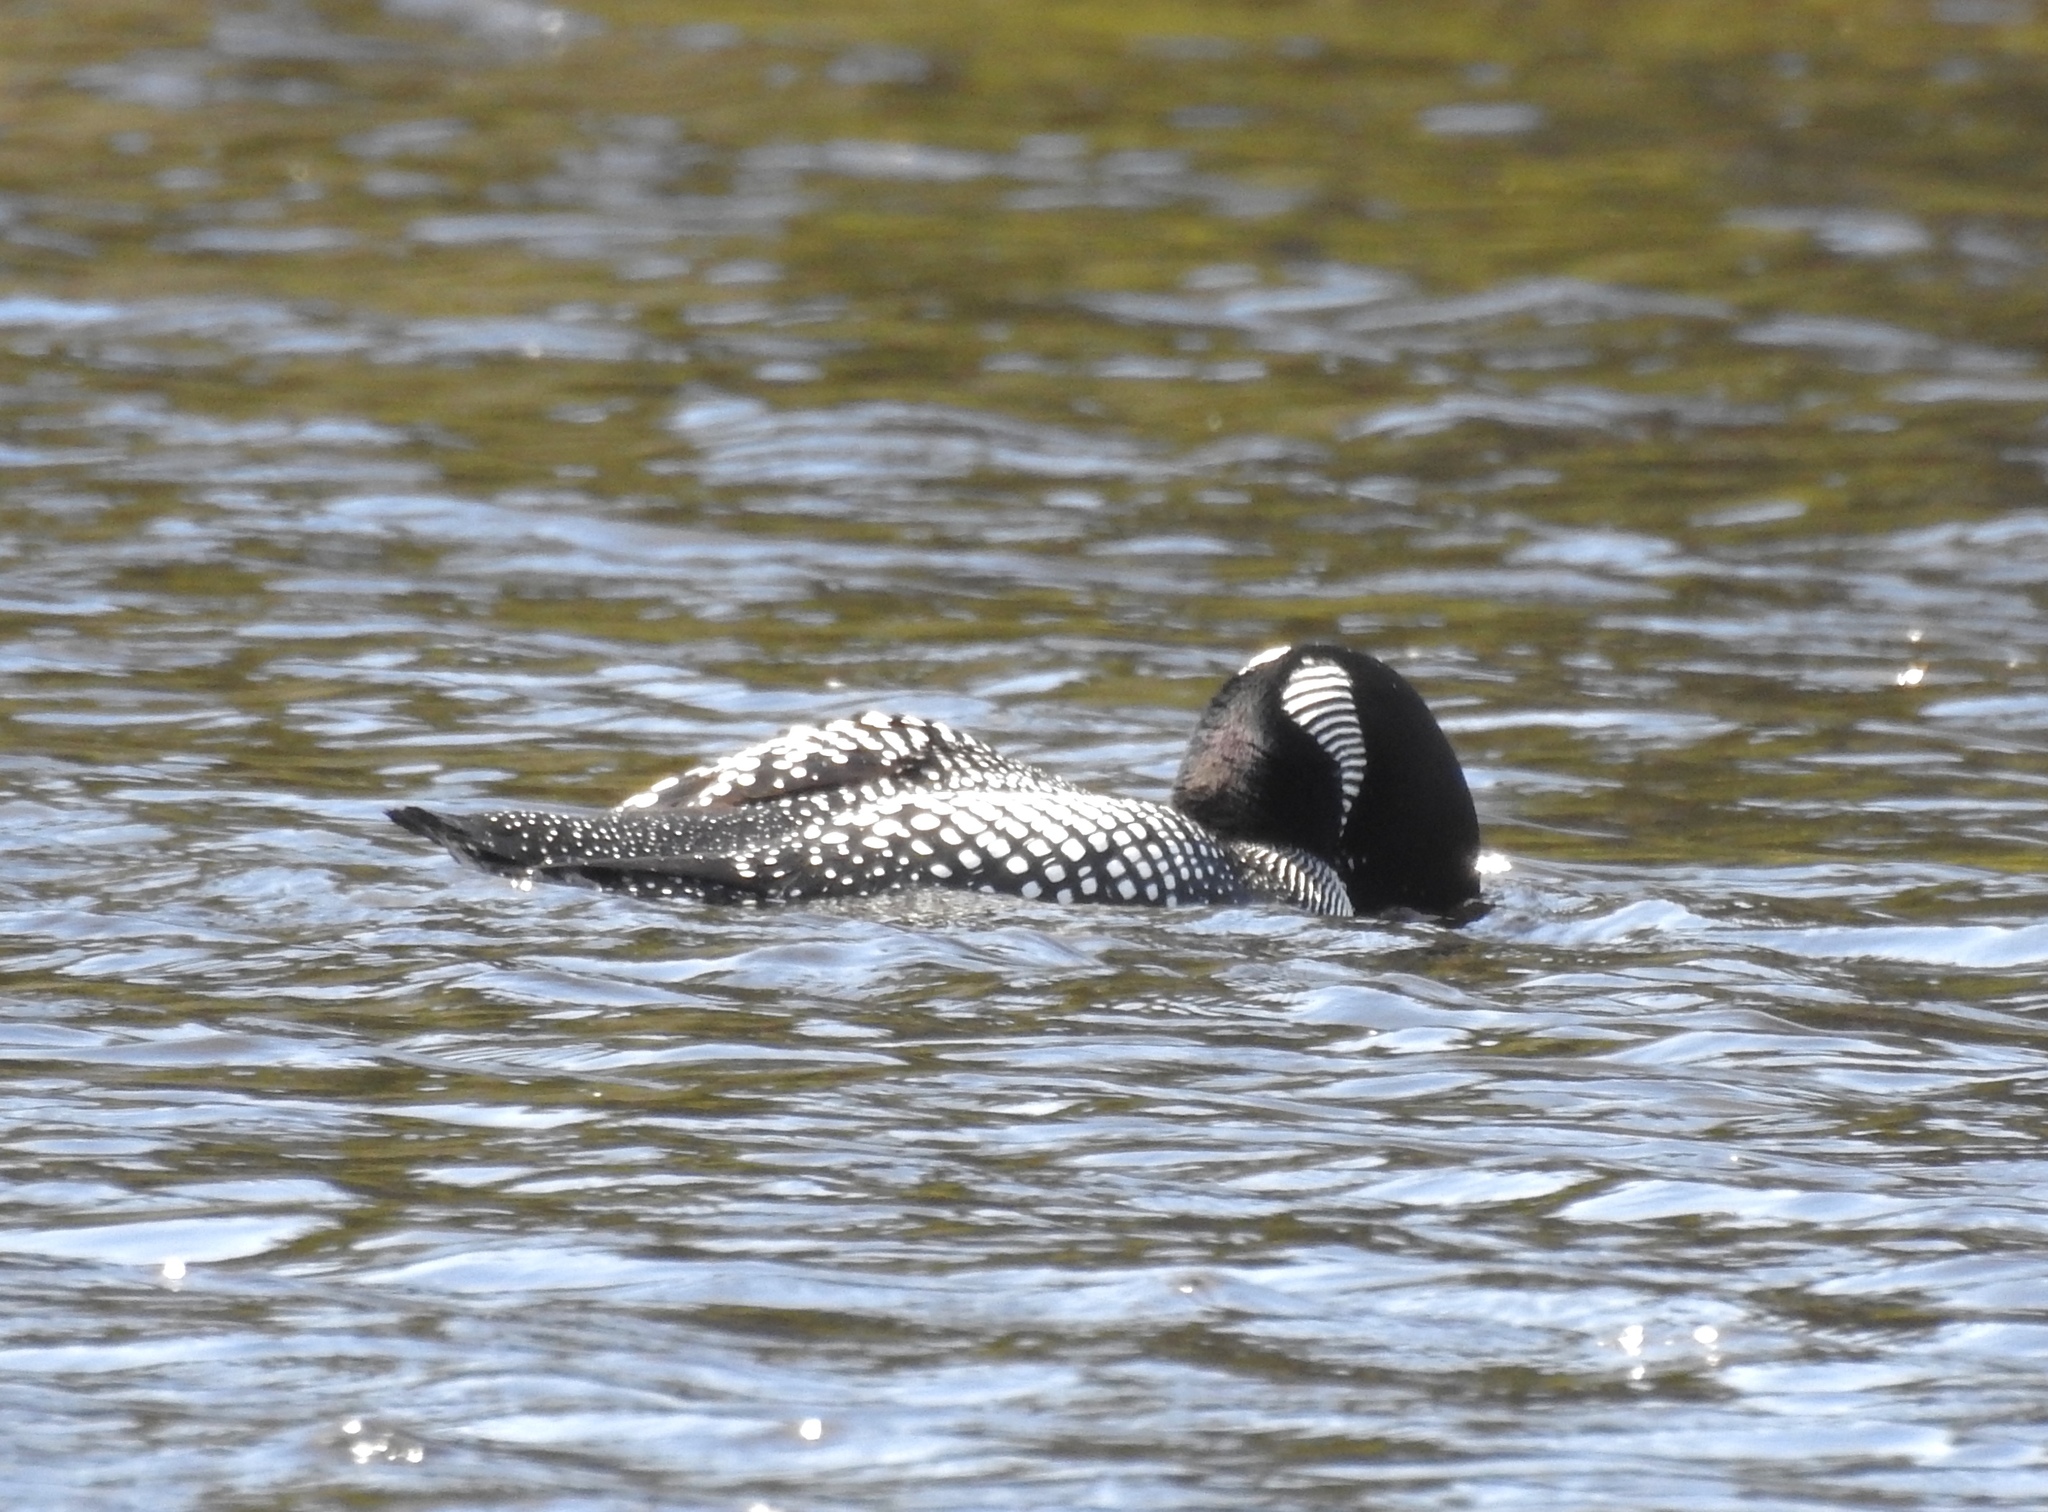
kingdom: Animalia
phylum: Chordata
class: Aves
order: Gaviiformes
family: Gaviidae
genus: Gavia
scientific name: Gavia immer
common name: Common loon
